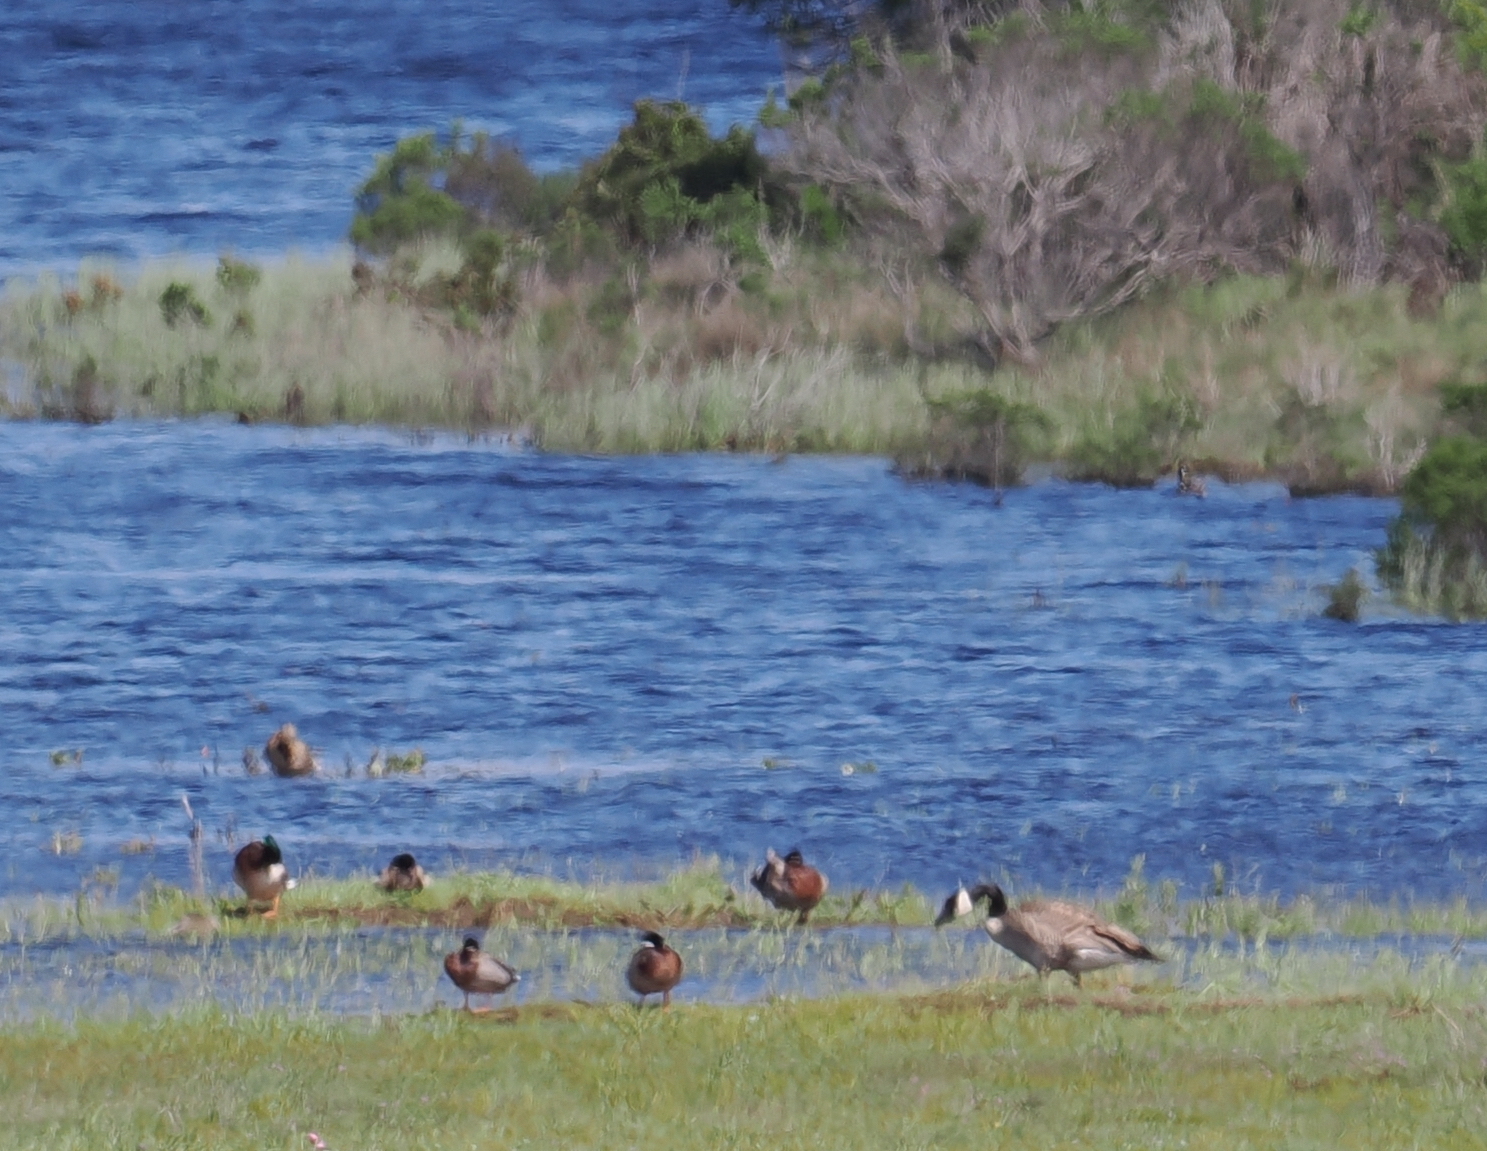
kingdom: Animalia
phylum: Chordata
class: Aves
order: Anseriformes
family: Anatidae
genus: Branta
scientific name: Branta canadensis
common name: Canada goose
